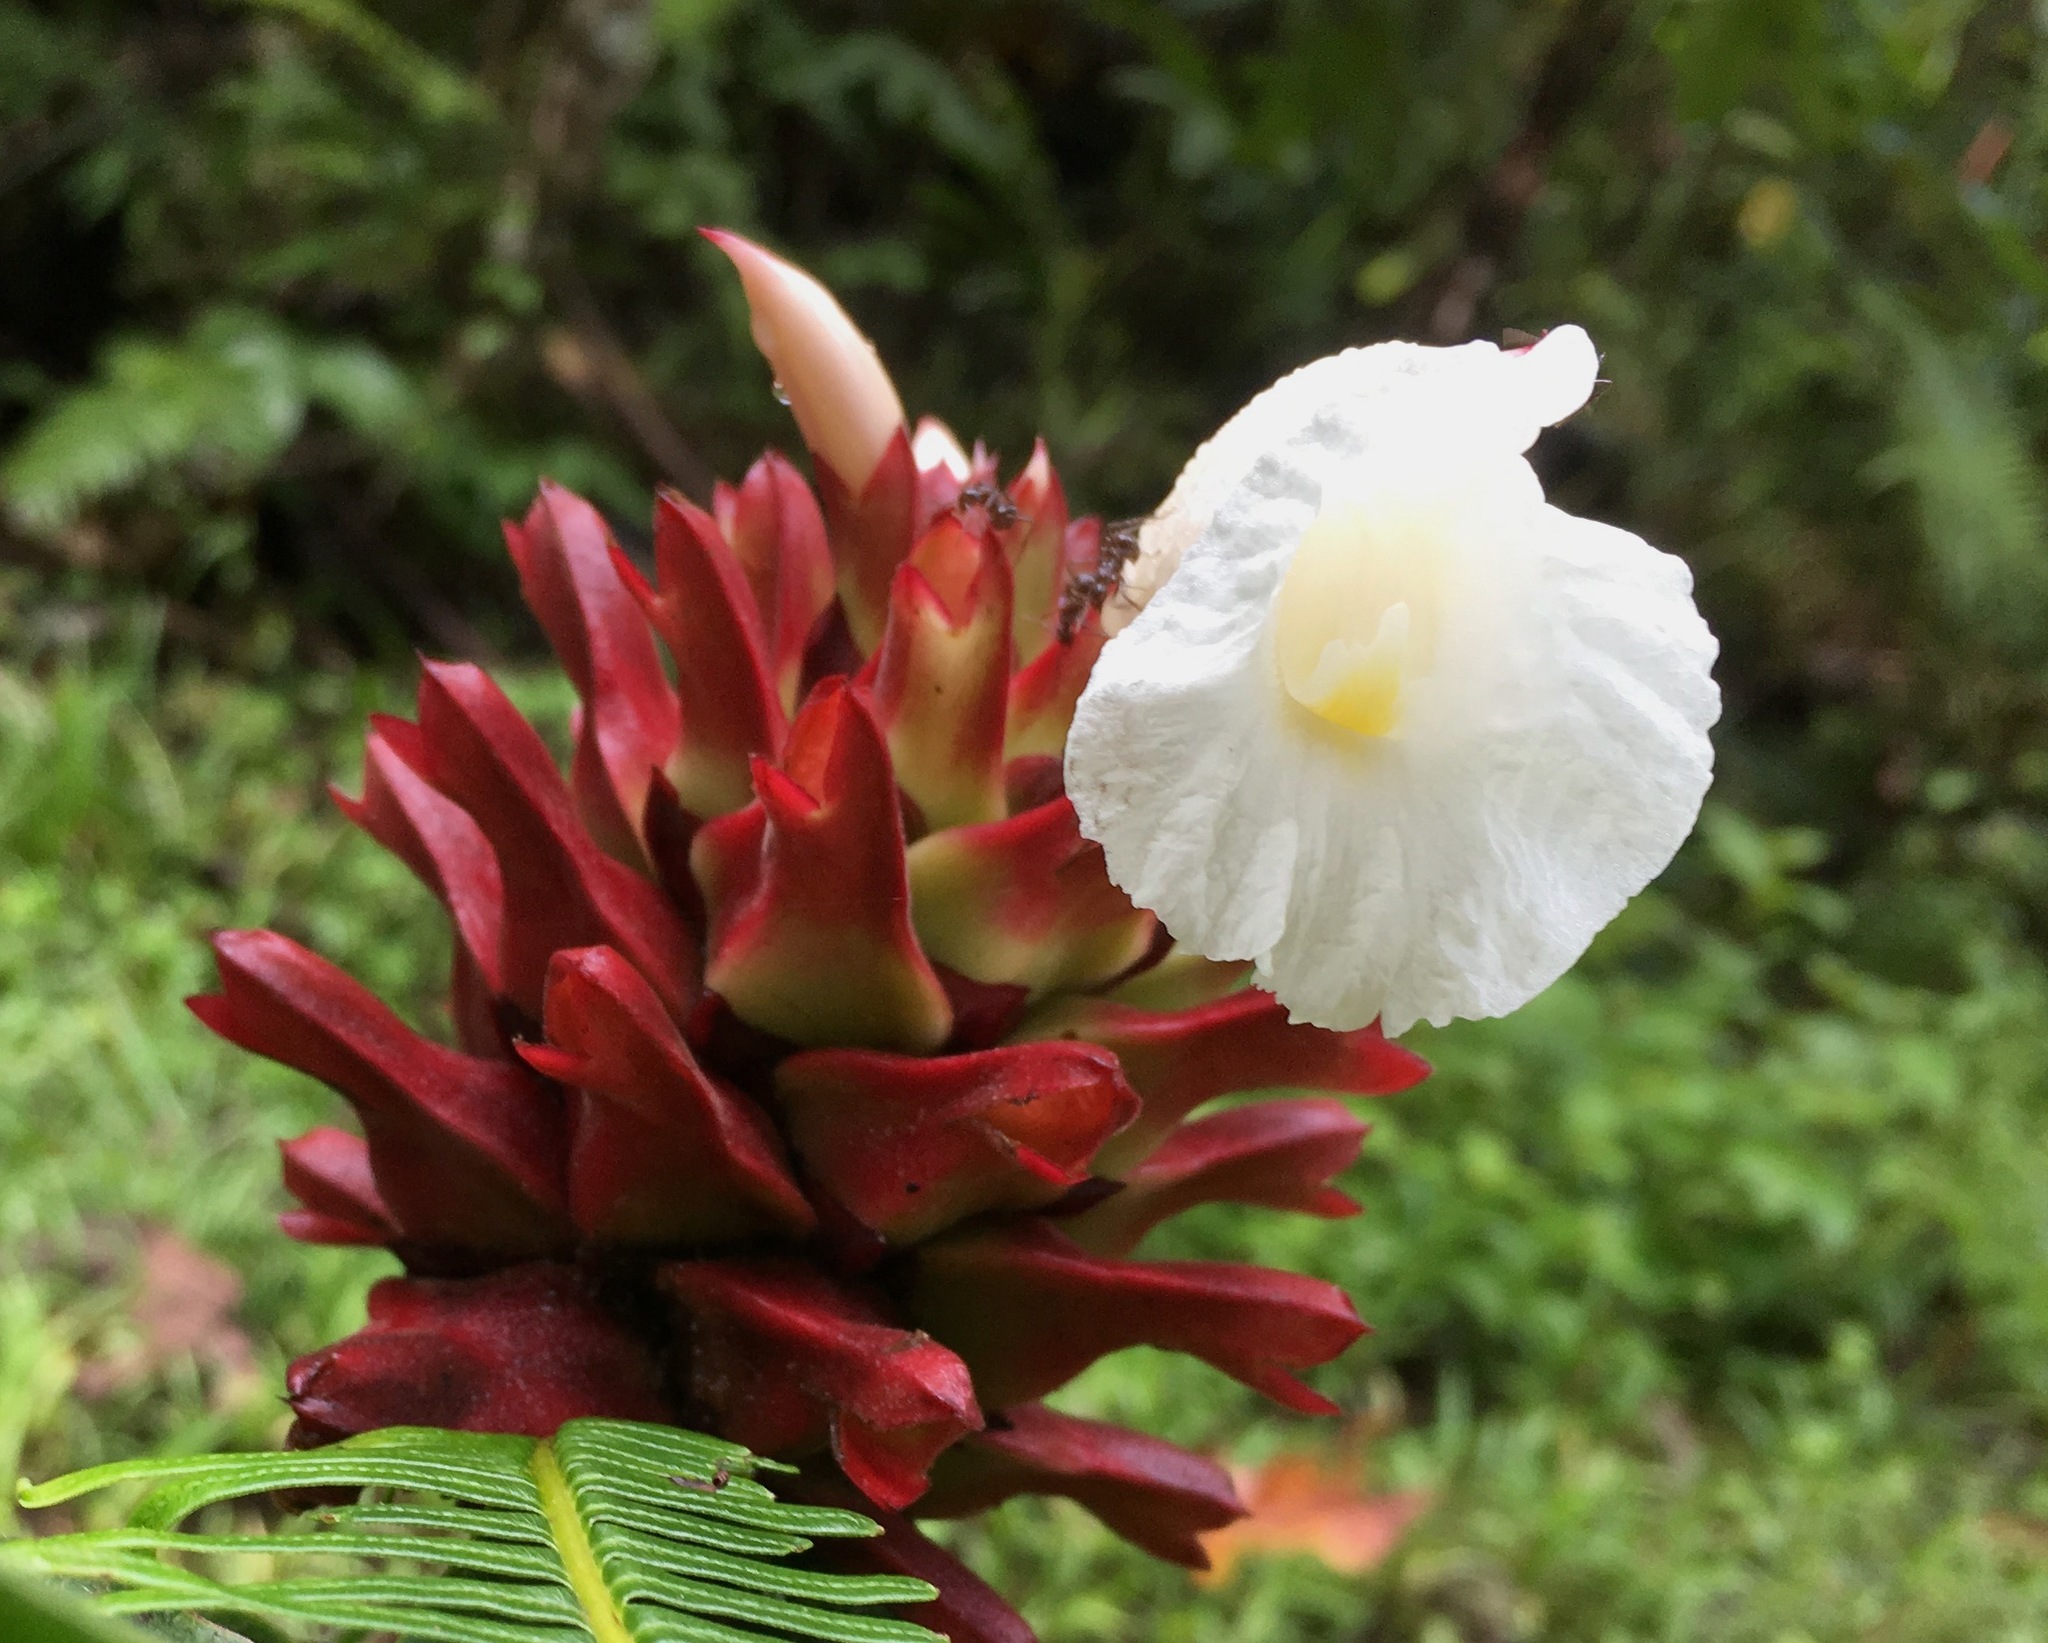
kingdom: Plantae
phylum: Tracheophyta
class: Liliopsida
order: Zingiberales
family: Costaceae
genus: Hellenia
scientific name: Hellenia speciosa
